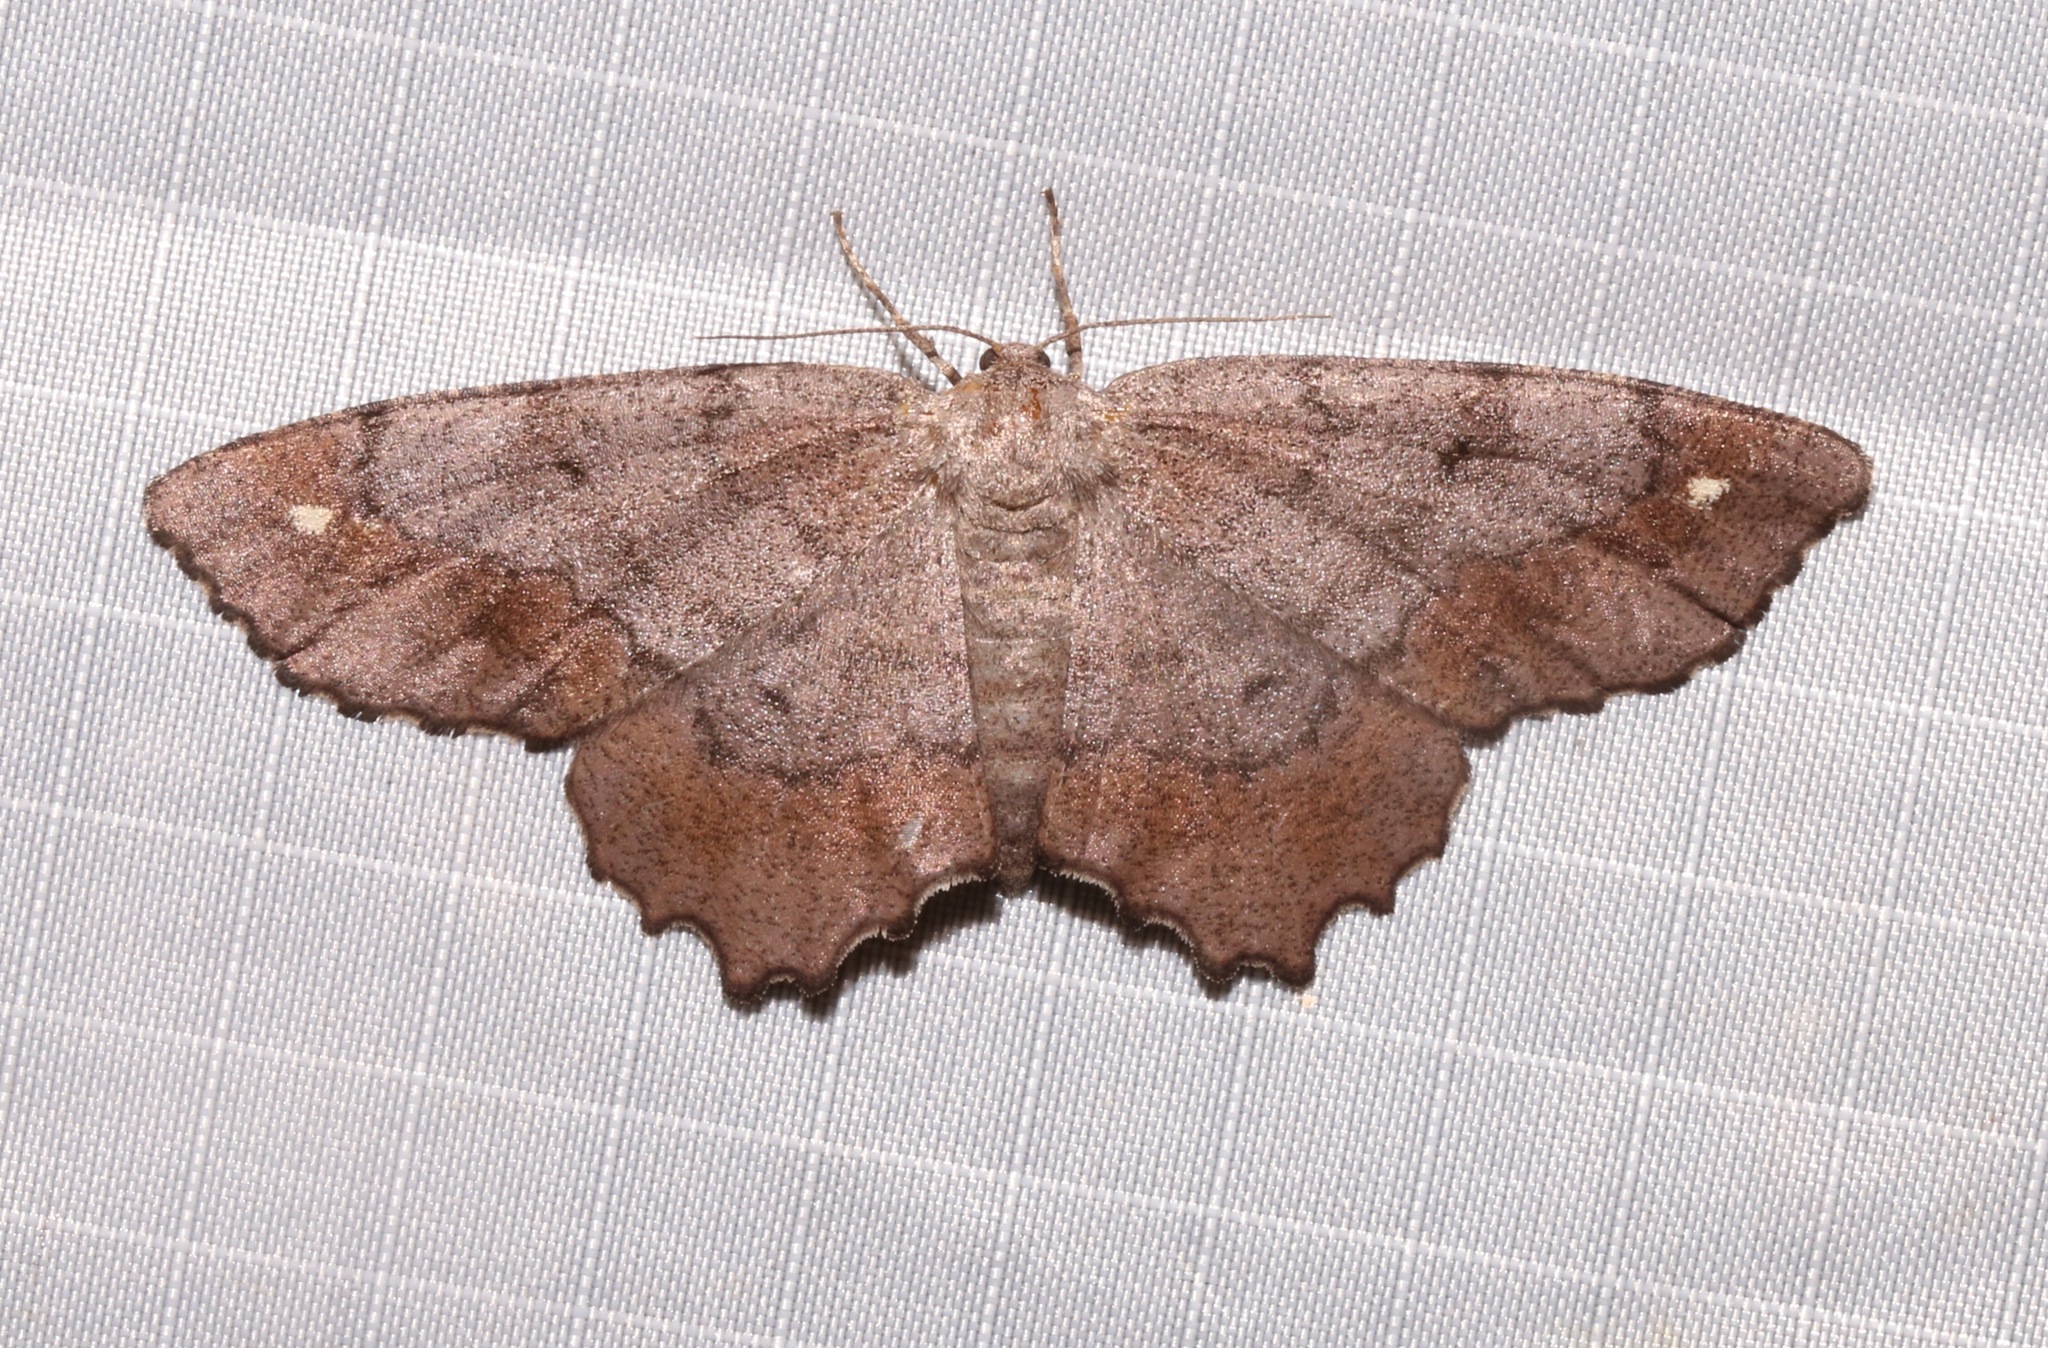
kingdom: Animalia
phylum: Arthropoda
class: Insecta
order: Lepidoptera
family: Geometridae
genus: Hypagyrtis
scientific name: Hypagyrtis esther
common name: Esther moth
